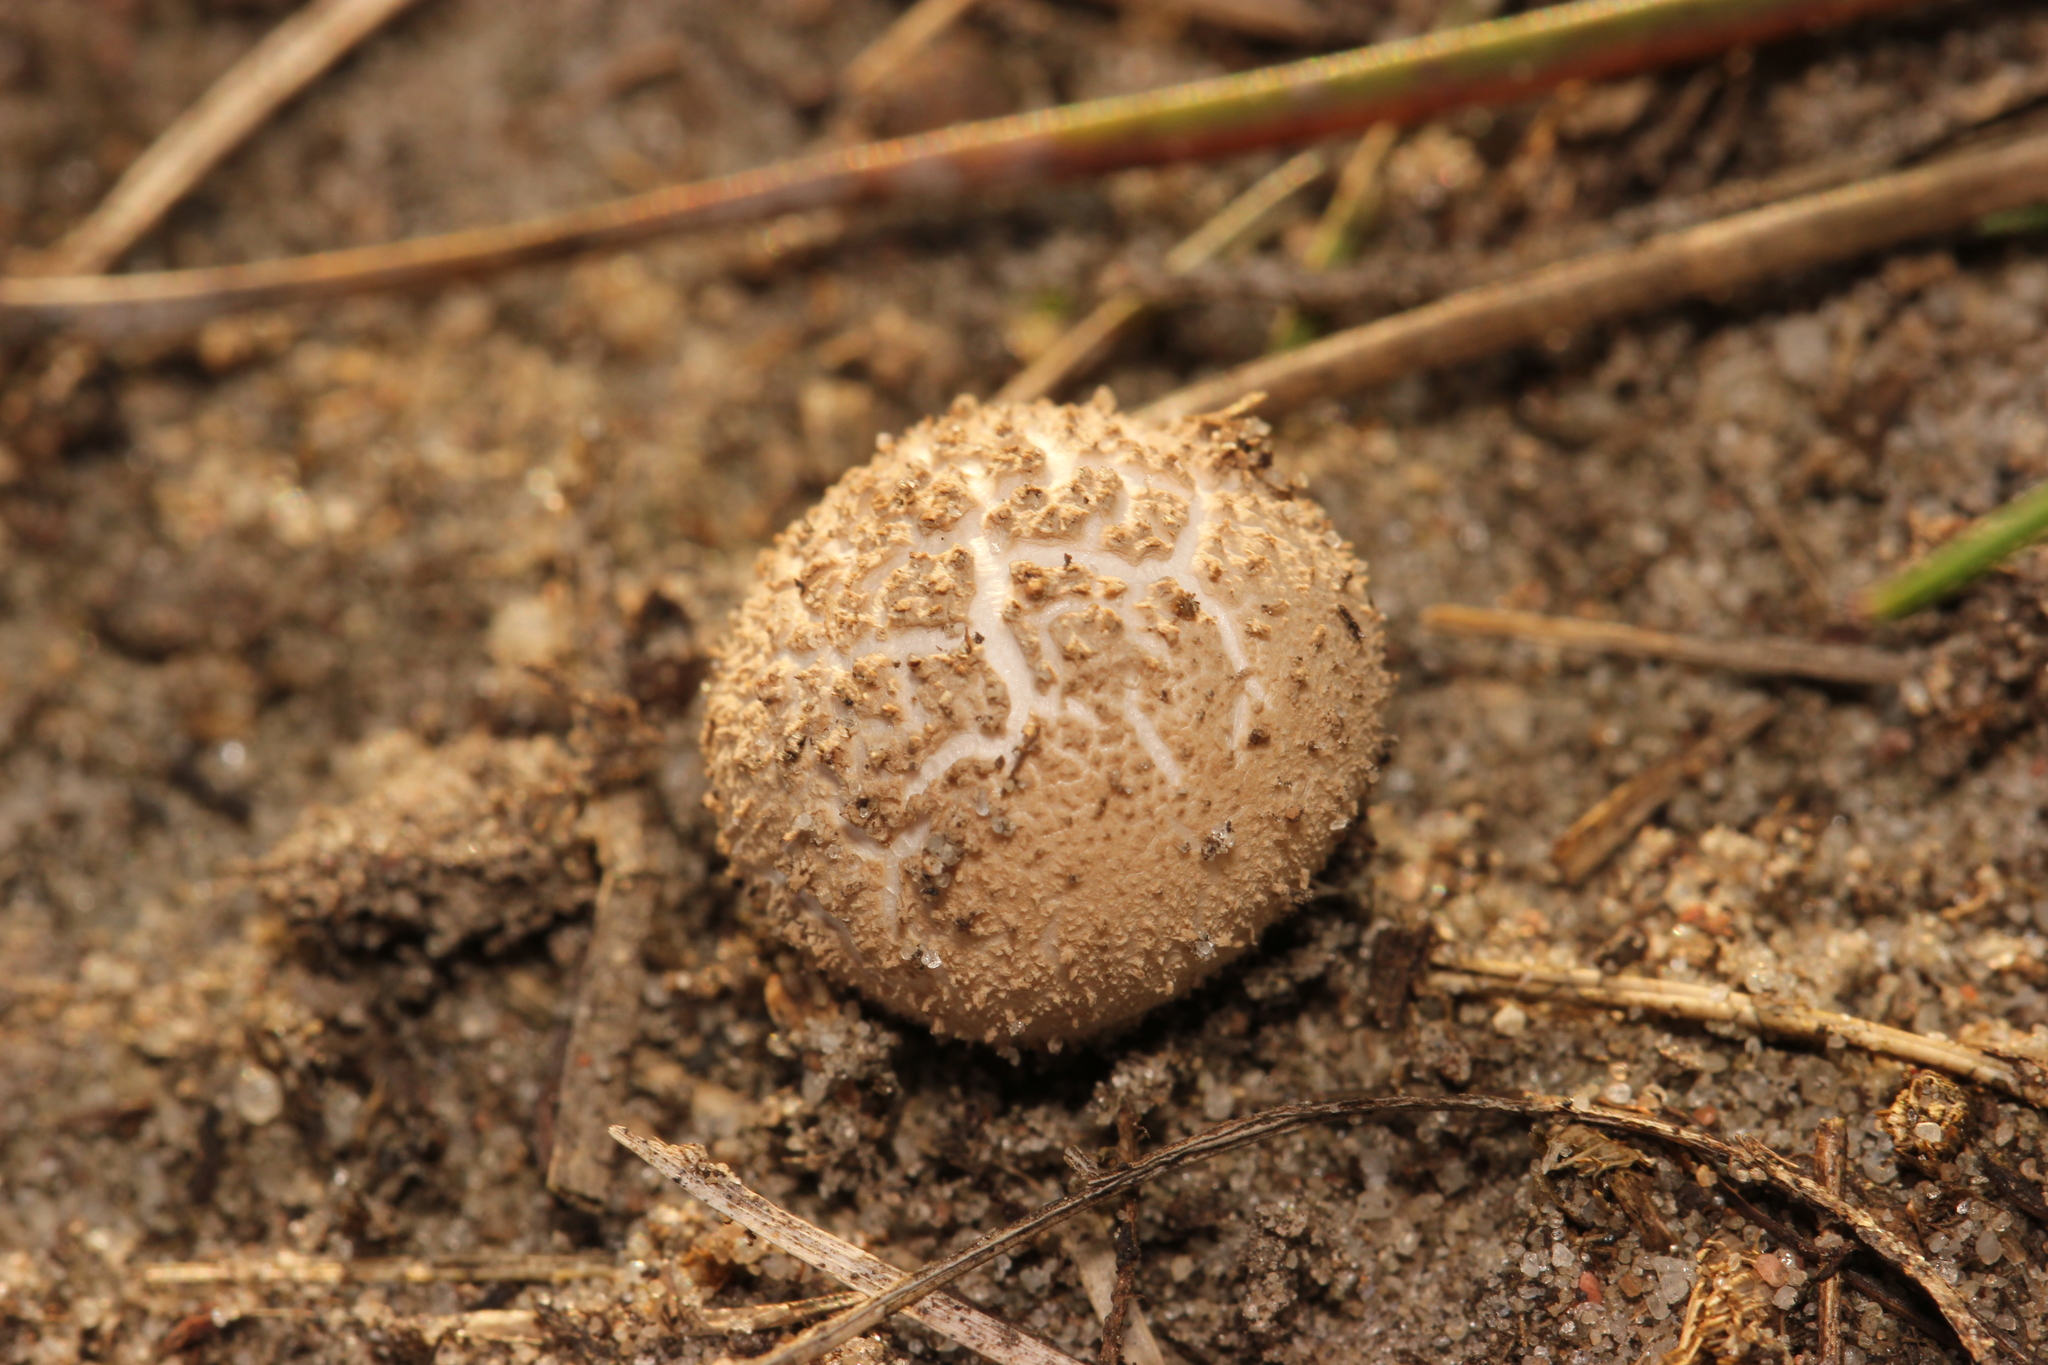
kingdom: Fungi
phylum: Basidiomycota
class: Agaricomycetes
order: Boletales
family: Sclerodermataceae
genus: Scleroderma
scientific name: Scleroderma citrinum
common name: Common earthball
